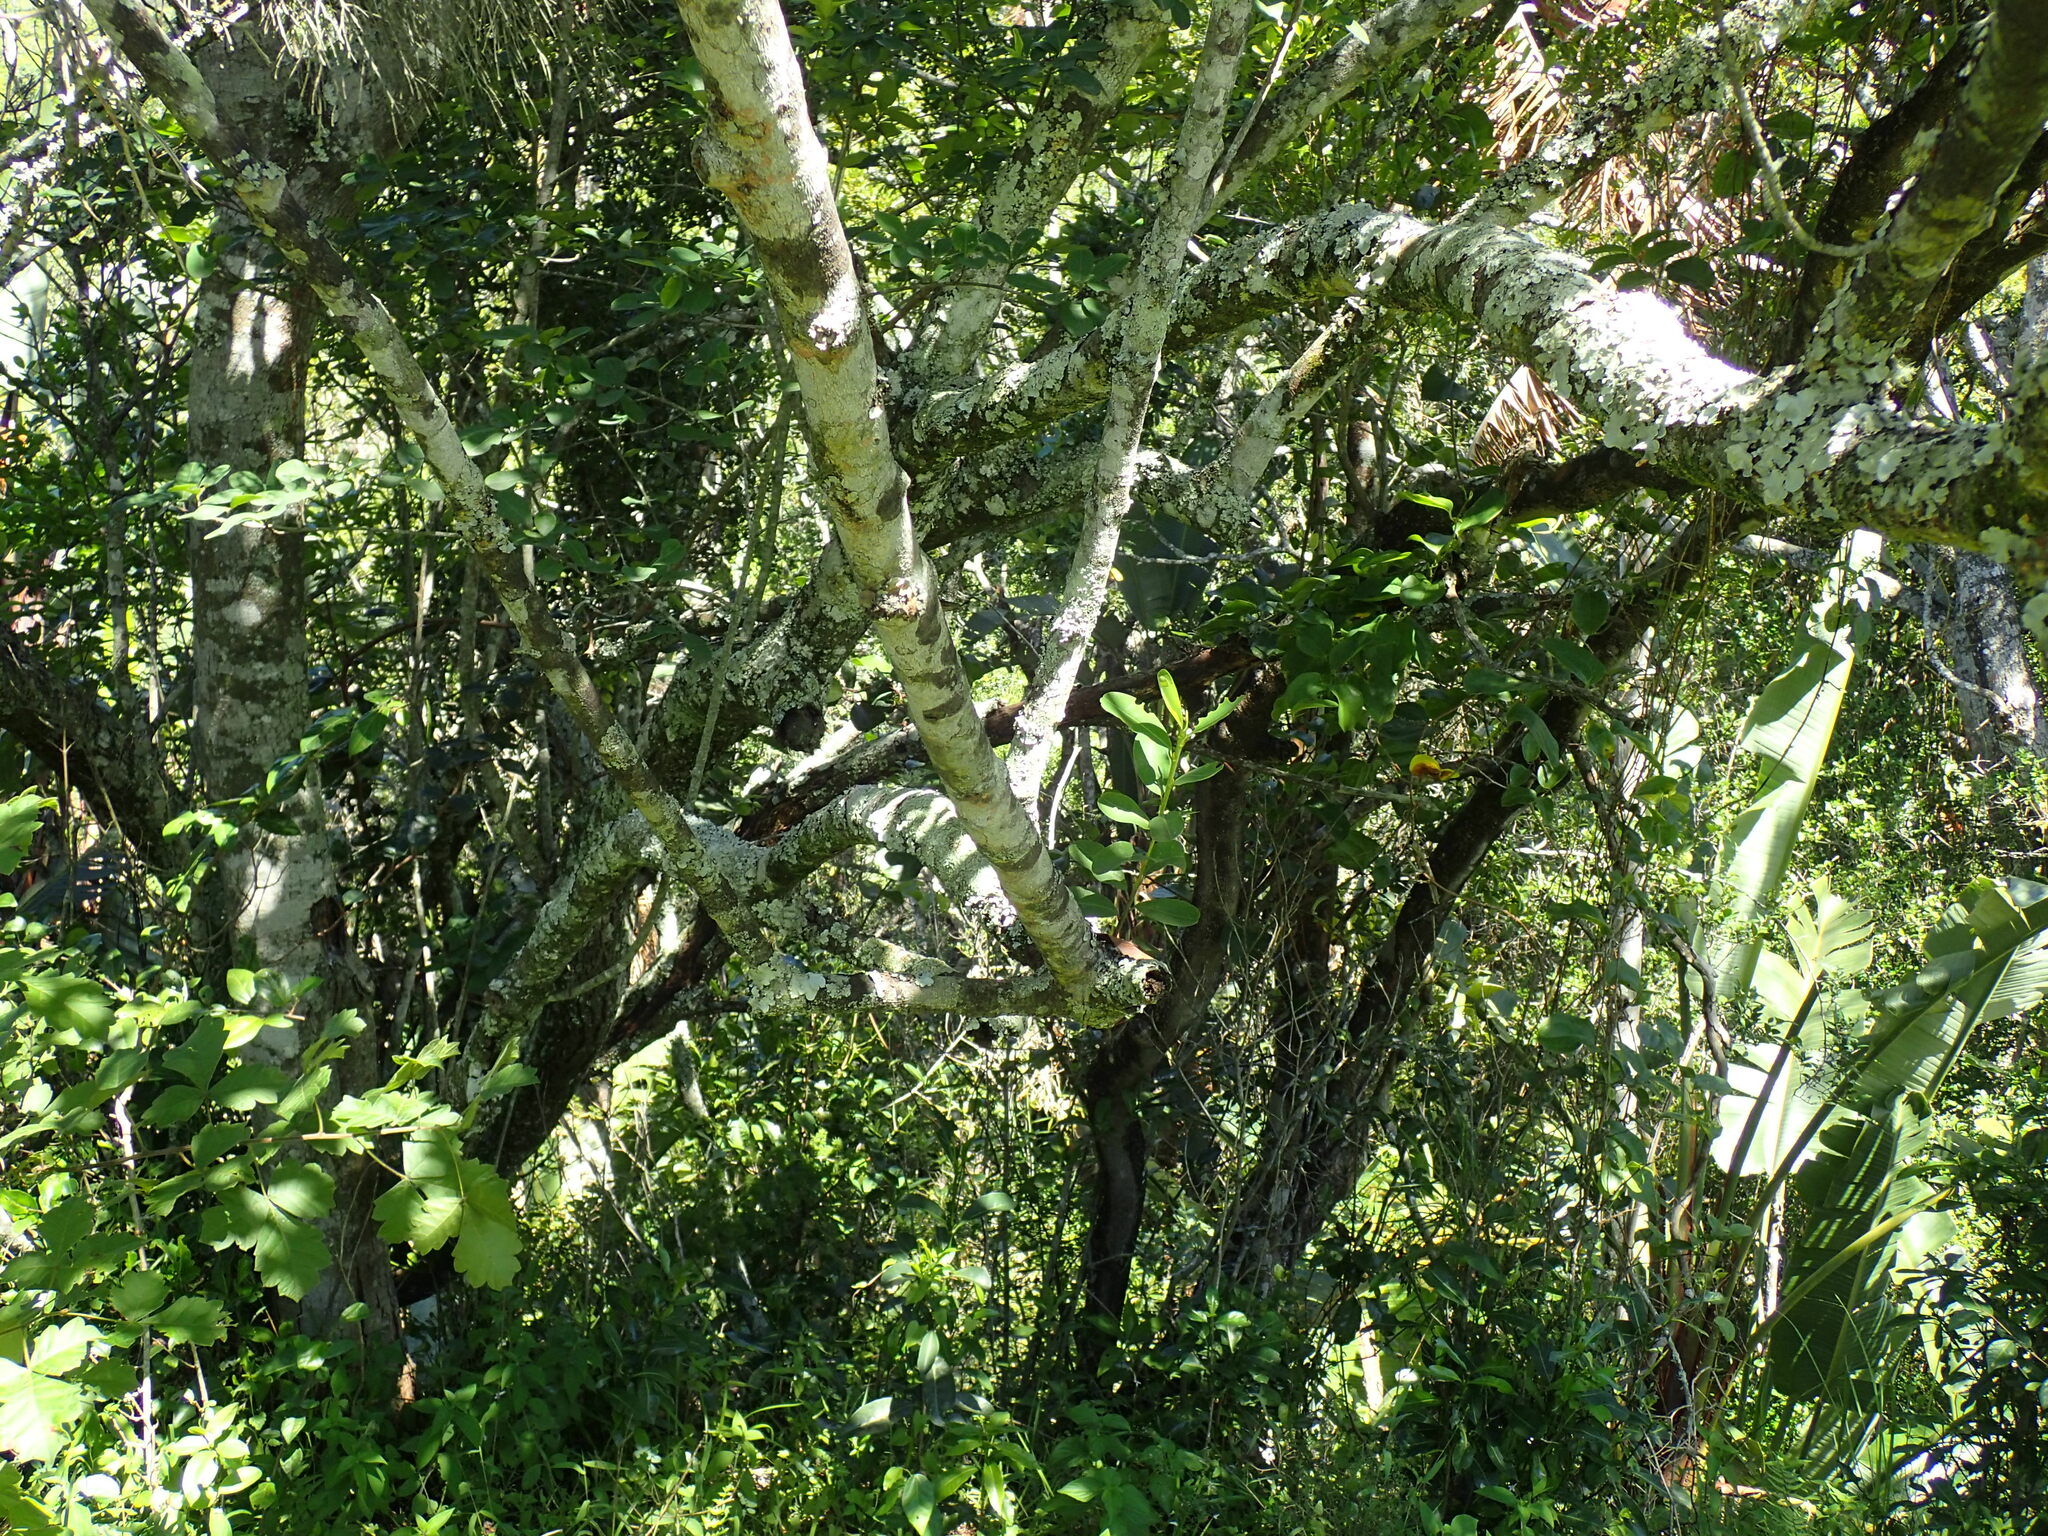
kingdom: Plantae
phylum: Tracheophyta
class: Magnoliopsida
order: Malpighiales
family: Erythroxylaceae
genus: Erythroxylum
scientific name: Erythroxylum pictum
